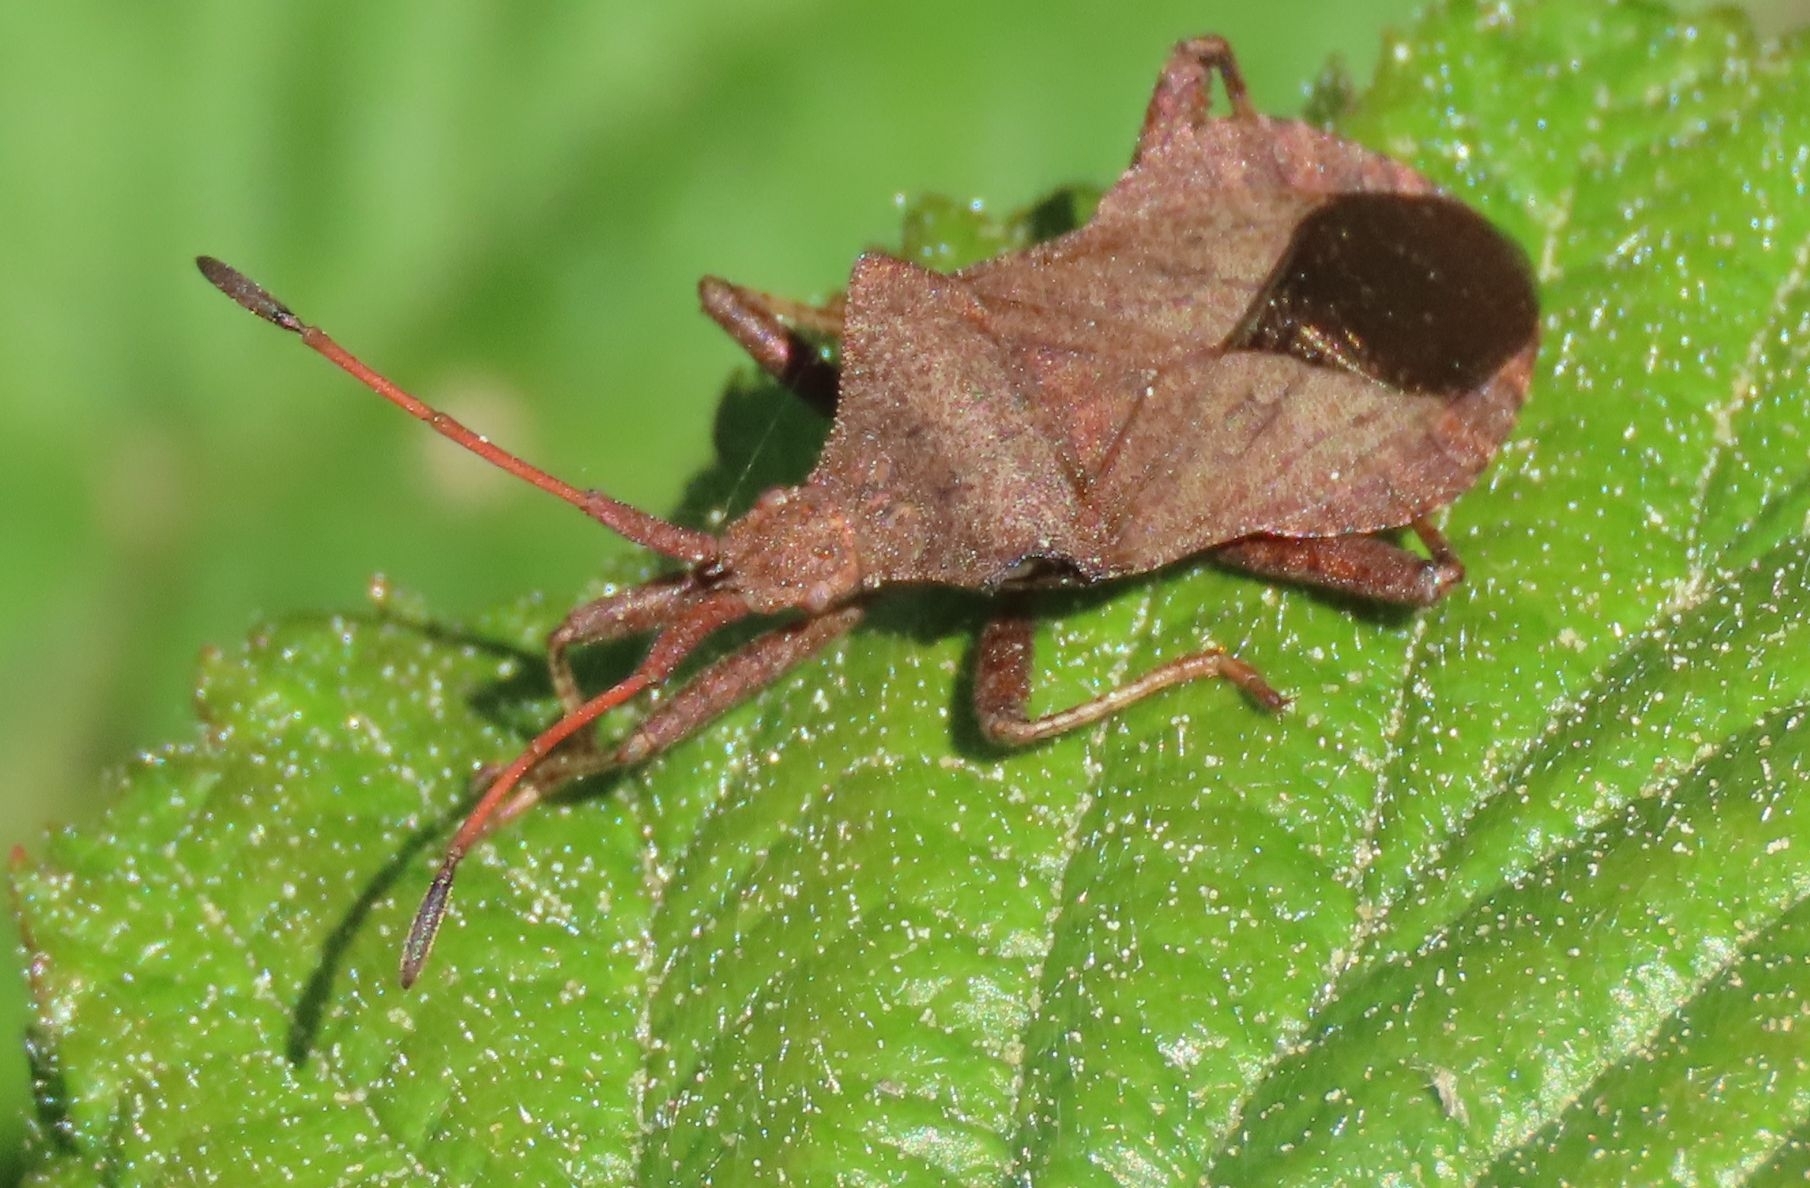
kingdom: Animalia
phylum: Arthropoda
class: Insecta
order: Hemiptera
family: Coreidae
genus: Coreus
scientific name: Coreus marginatus
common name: Dock bug
